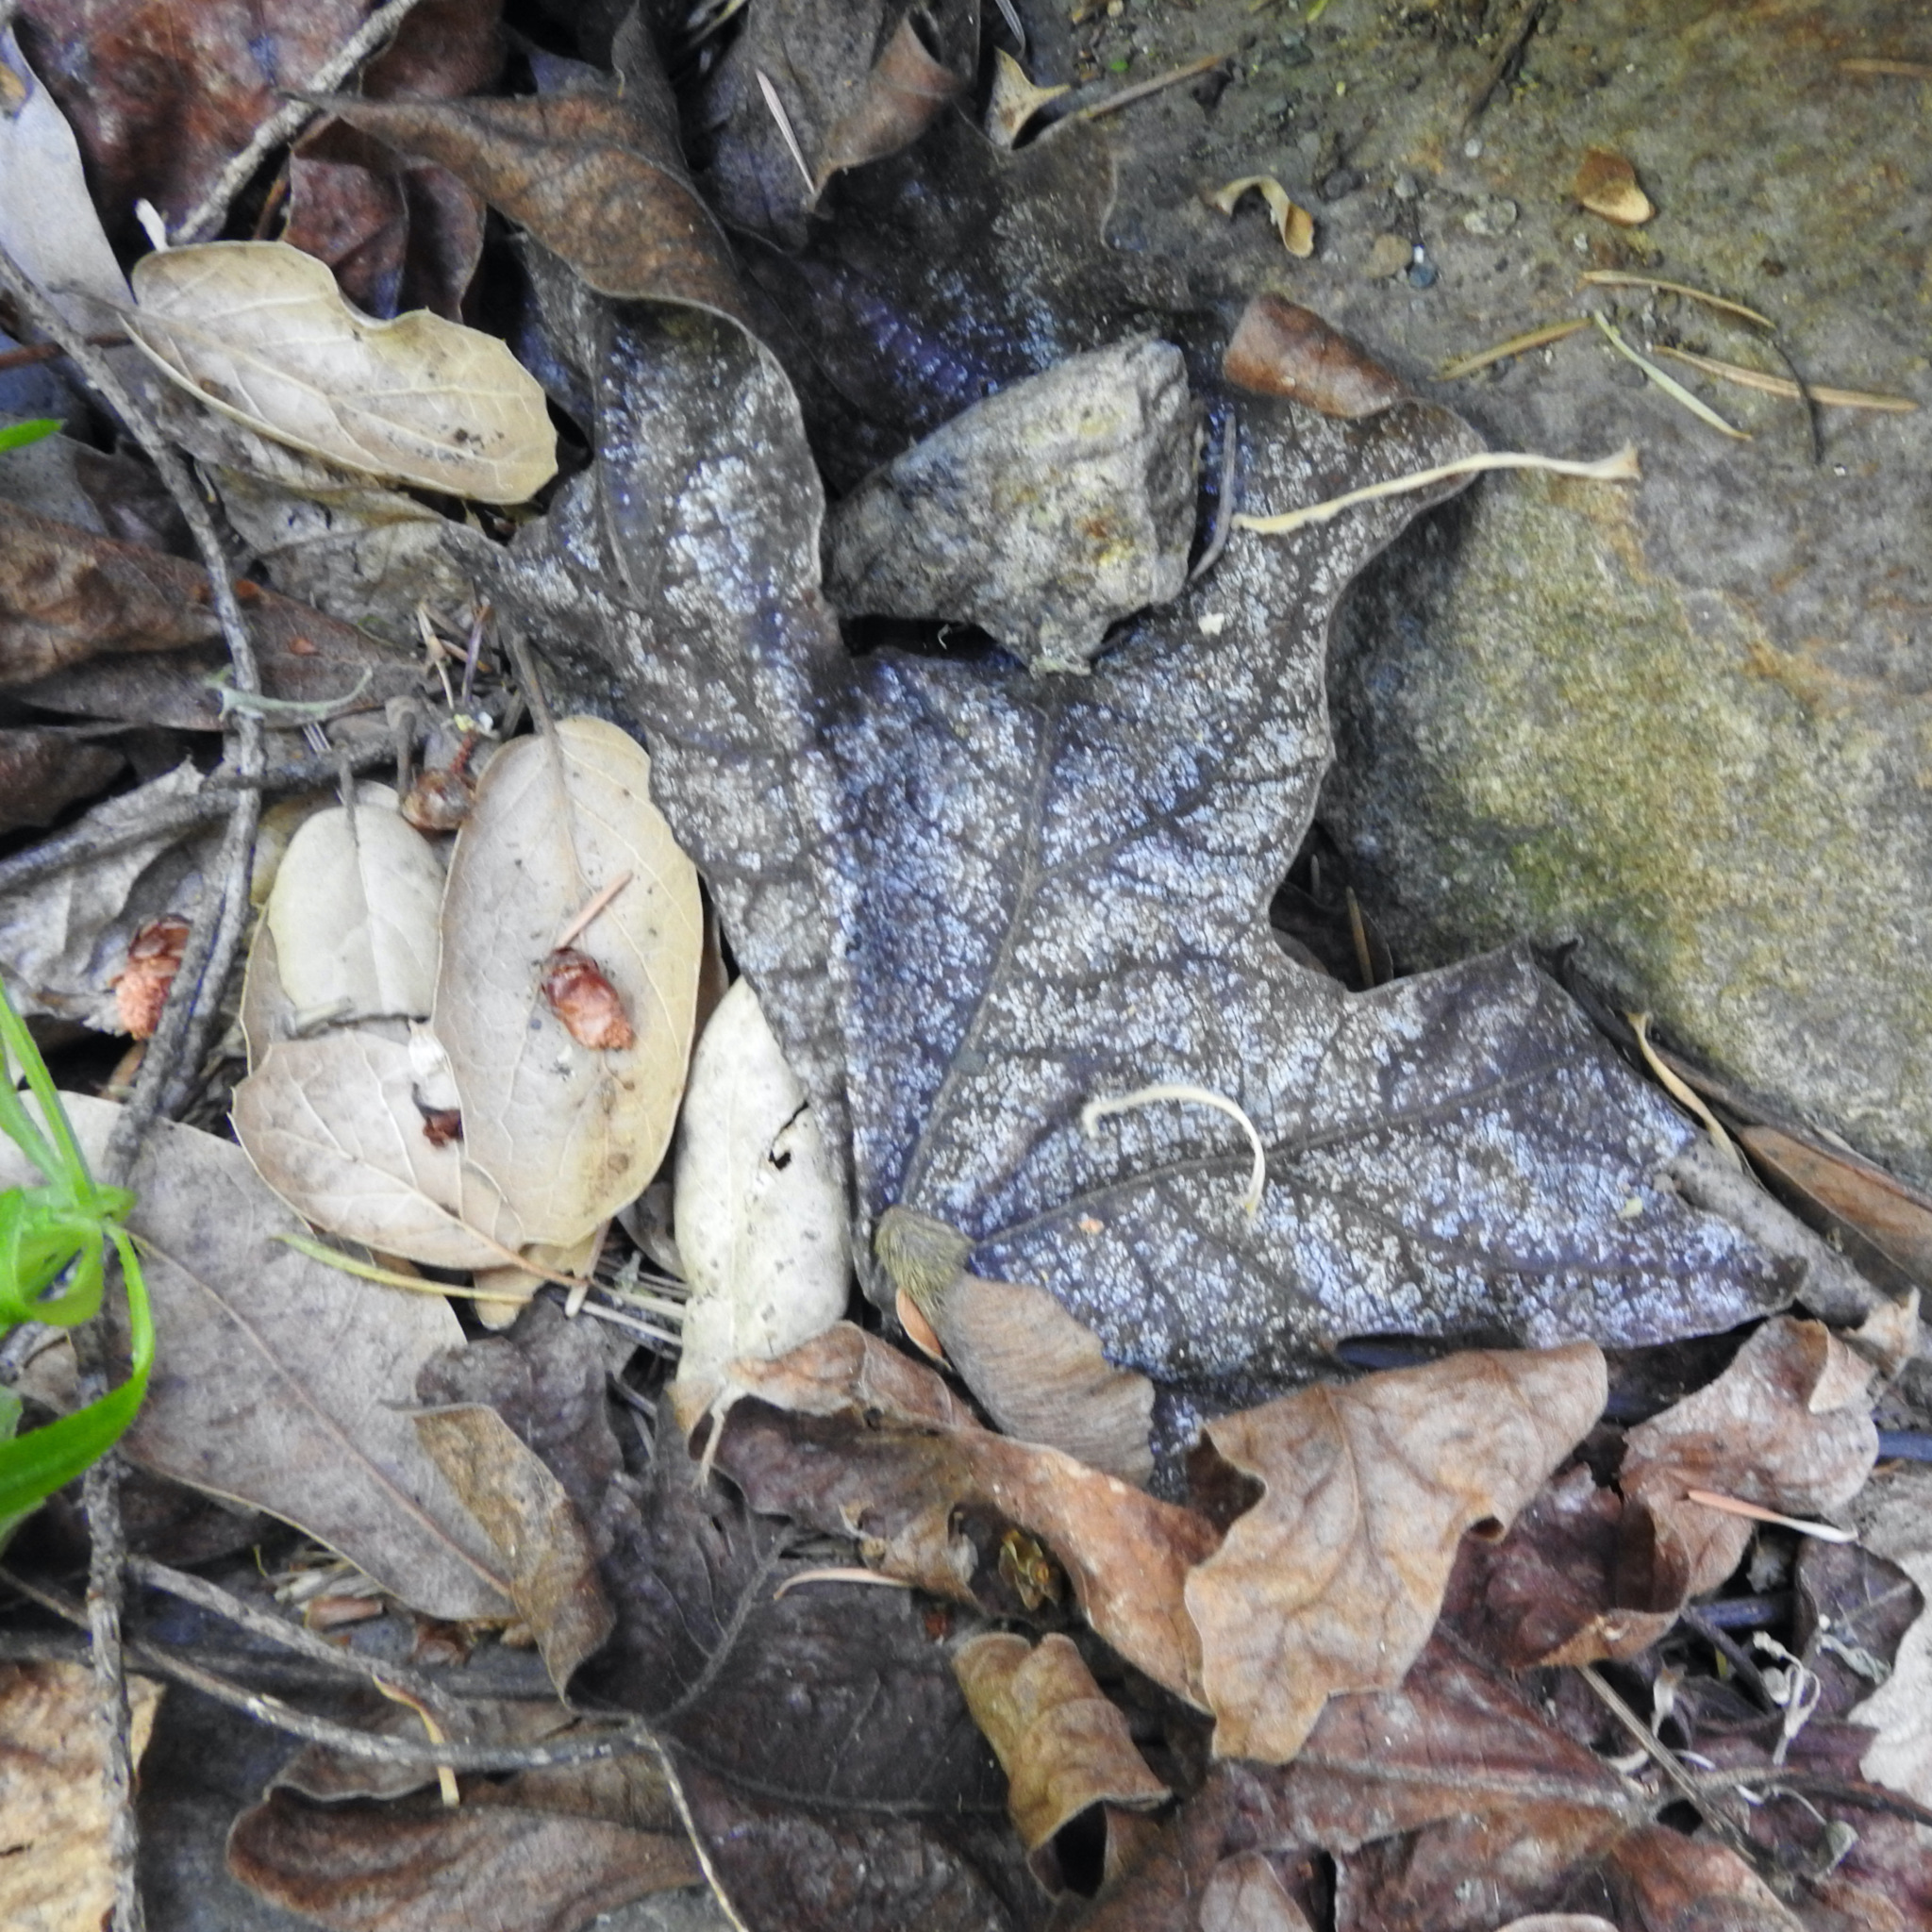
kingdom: Plantae
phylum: Tracheophyta
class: Magnoliopsida
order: Sapindales
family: Sapindaceae
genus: Acer
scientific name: Acer macrophyllum
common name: Oregon maple
